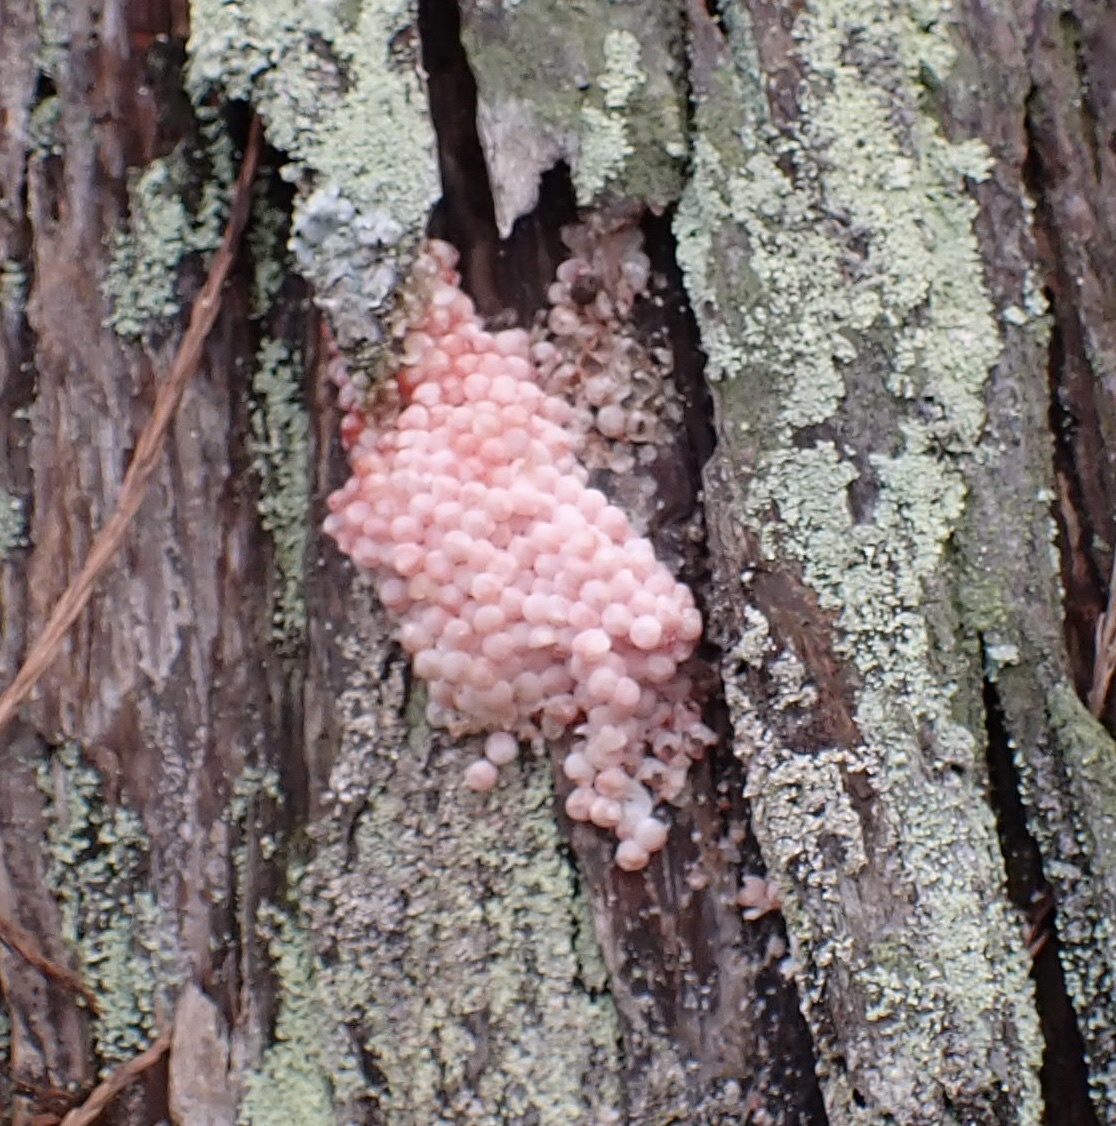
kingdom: Animalia
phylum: Mollusca
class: Gastropoda
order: Architaenioglossa
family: Ampullariidae
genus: Pomacea
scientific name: Pomacea maculata
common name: Giant applesnail
